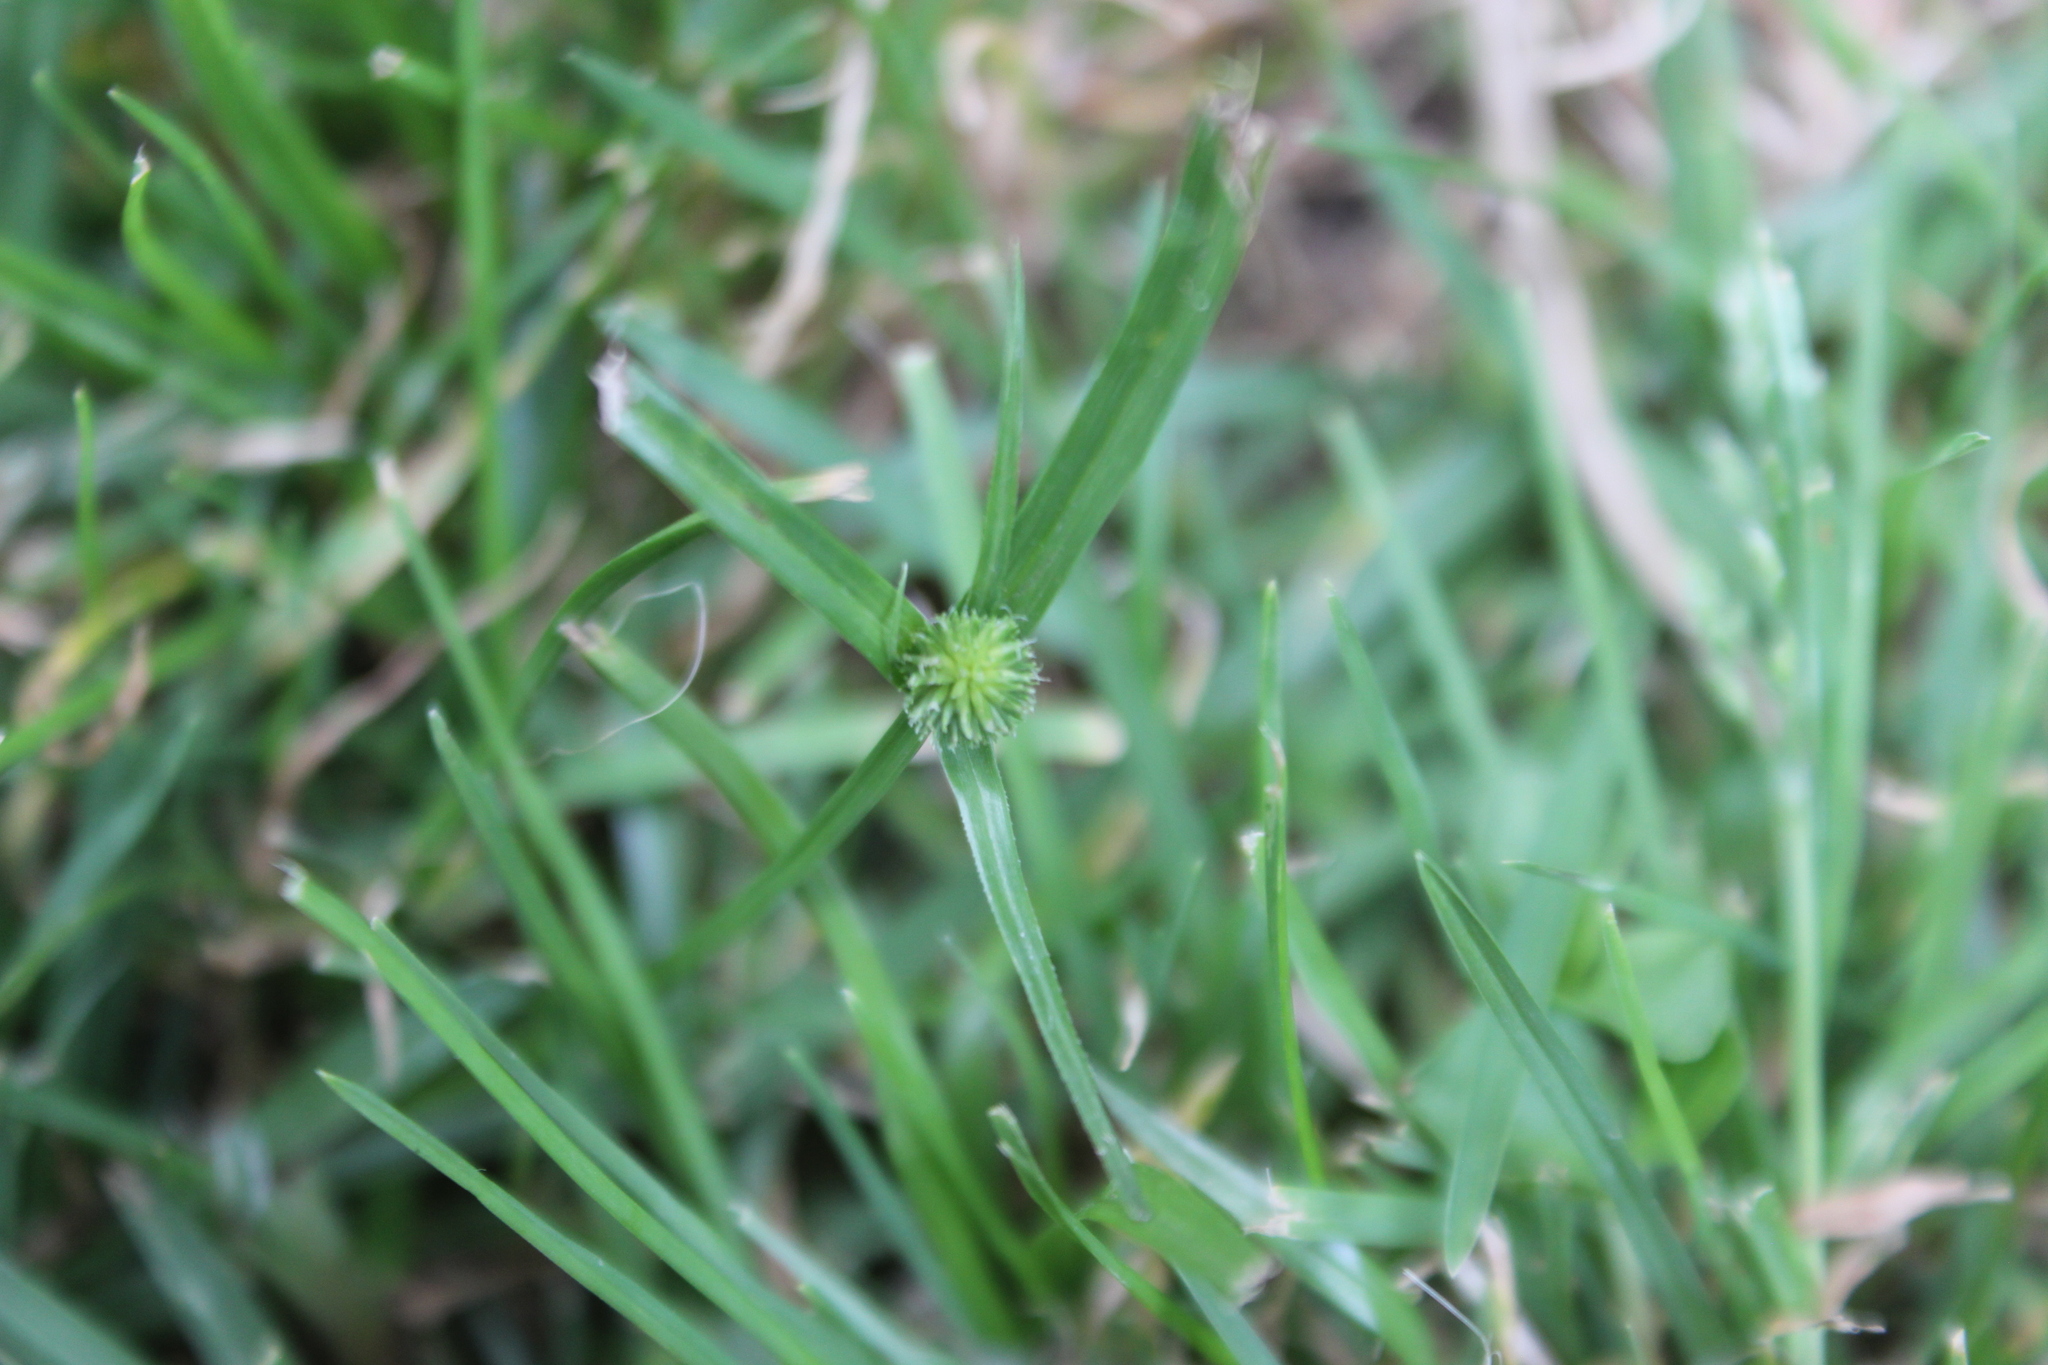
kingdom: Plantae
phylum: Tracheophyta
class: Liliopsida
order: Poales
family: Cyperaceae
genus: Cyperus
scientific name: Cyperus brevifolius
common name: Globe kyllinga
